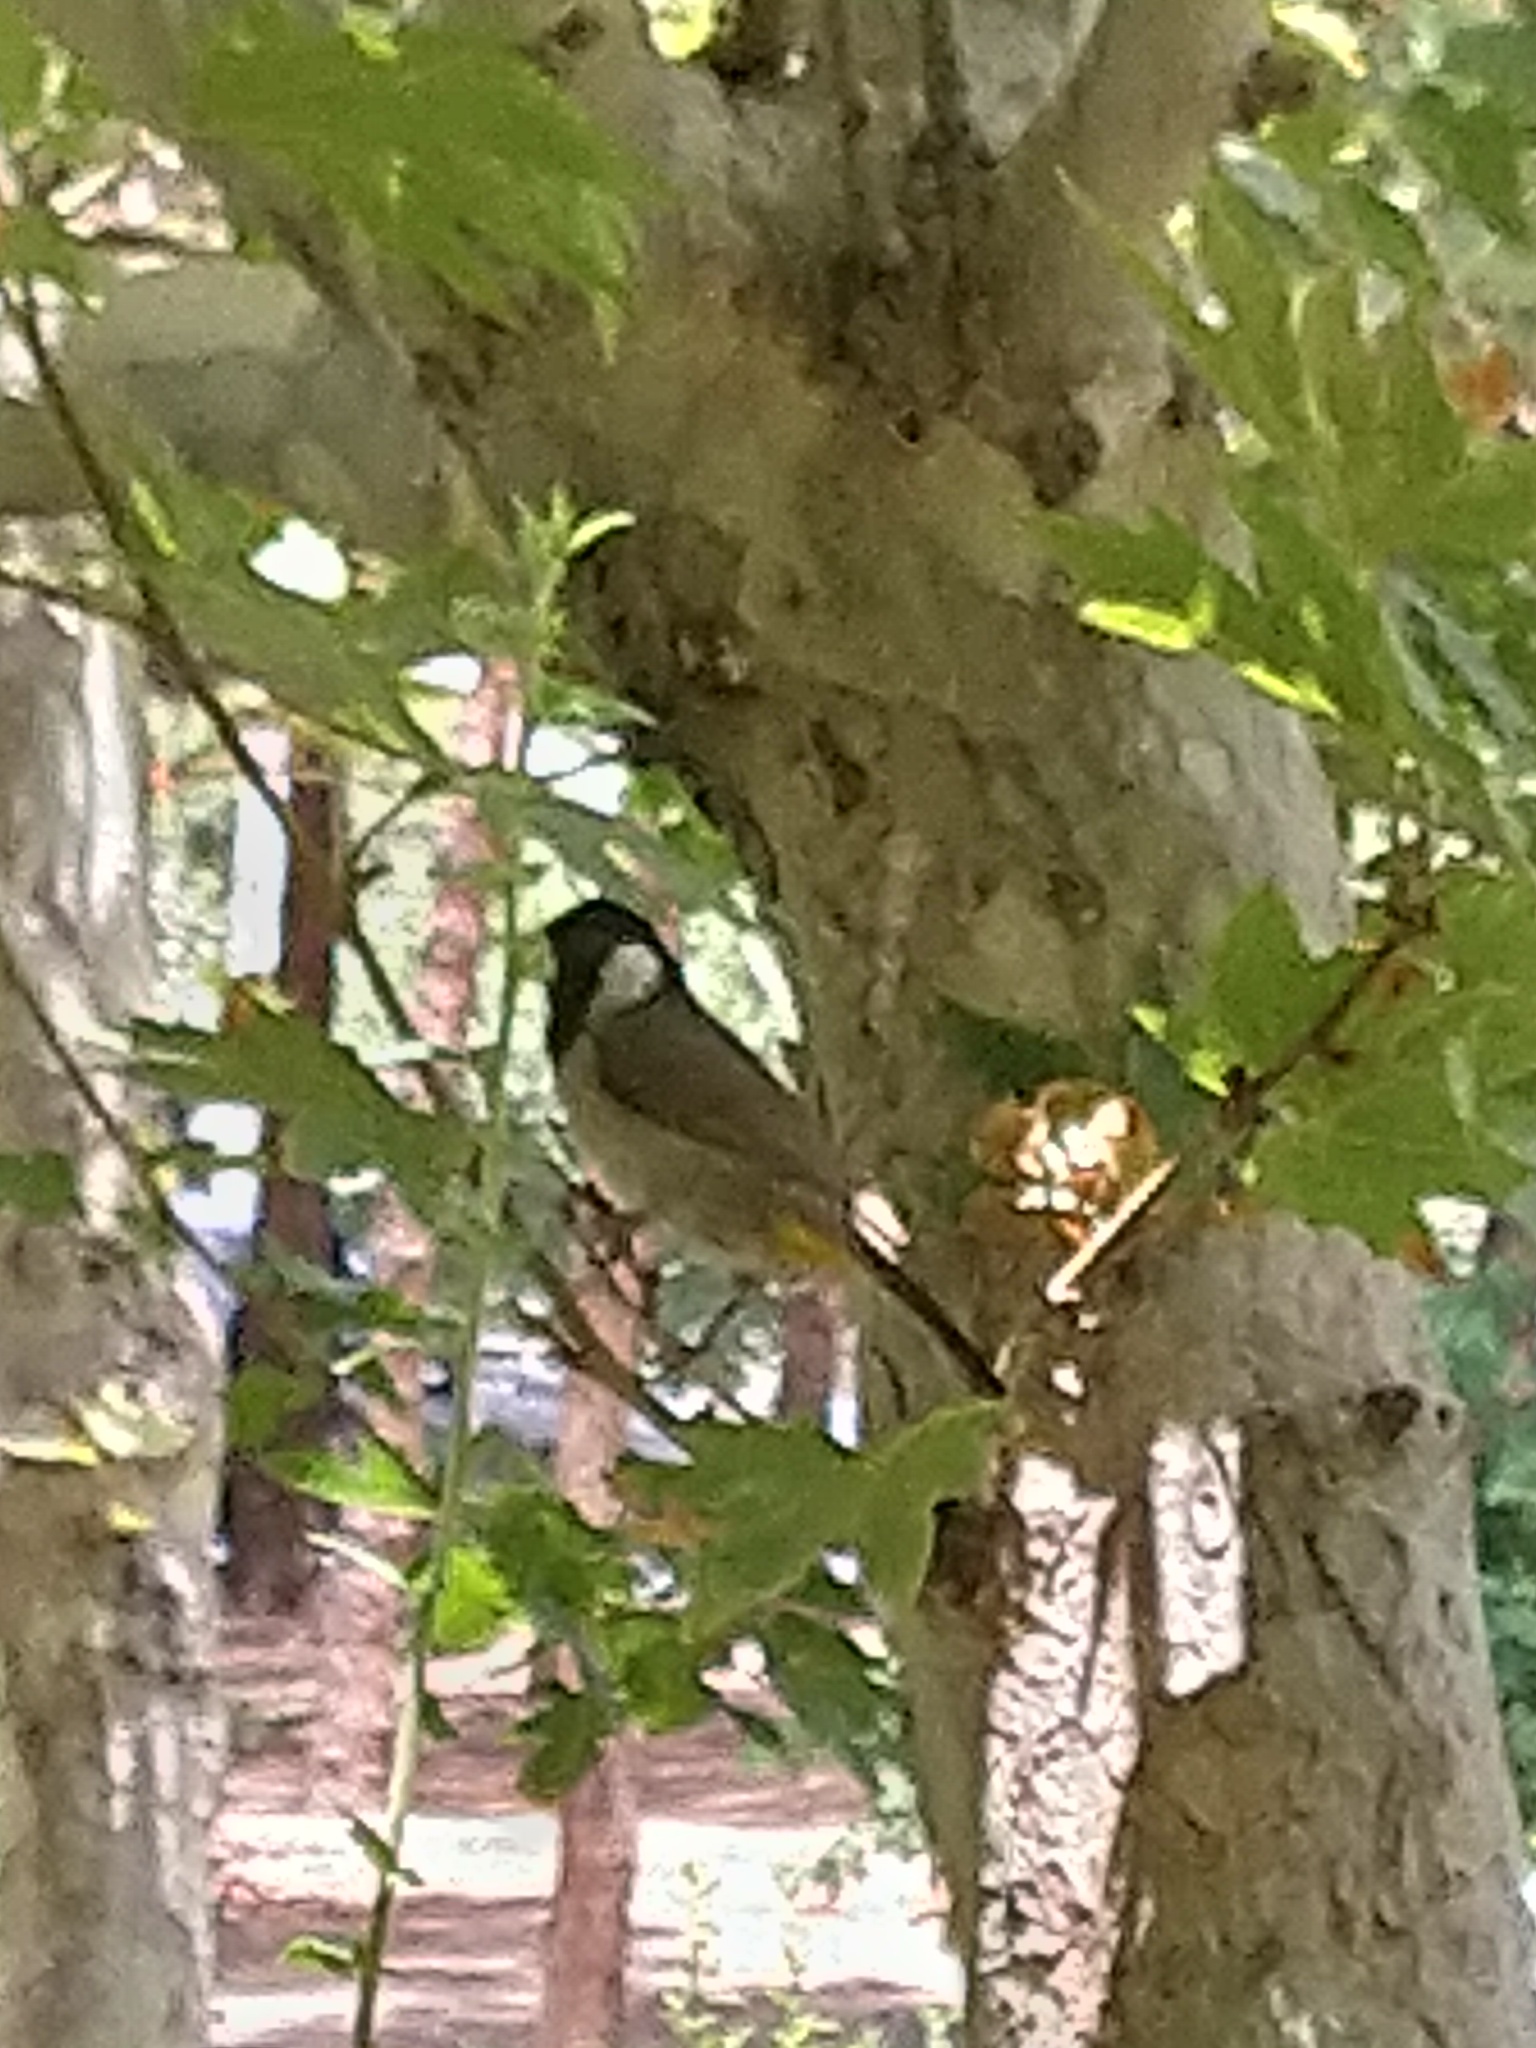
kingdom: Animalia
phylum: Chordata
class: Aves
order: Passeriformes
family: Pycnonotidae
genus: Pycnonotus
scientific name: Pycnonotus leucotis
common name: White-eared bulbul
